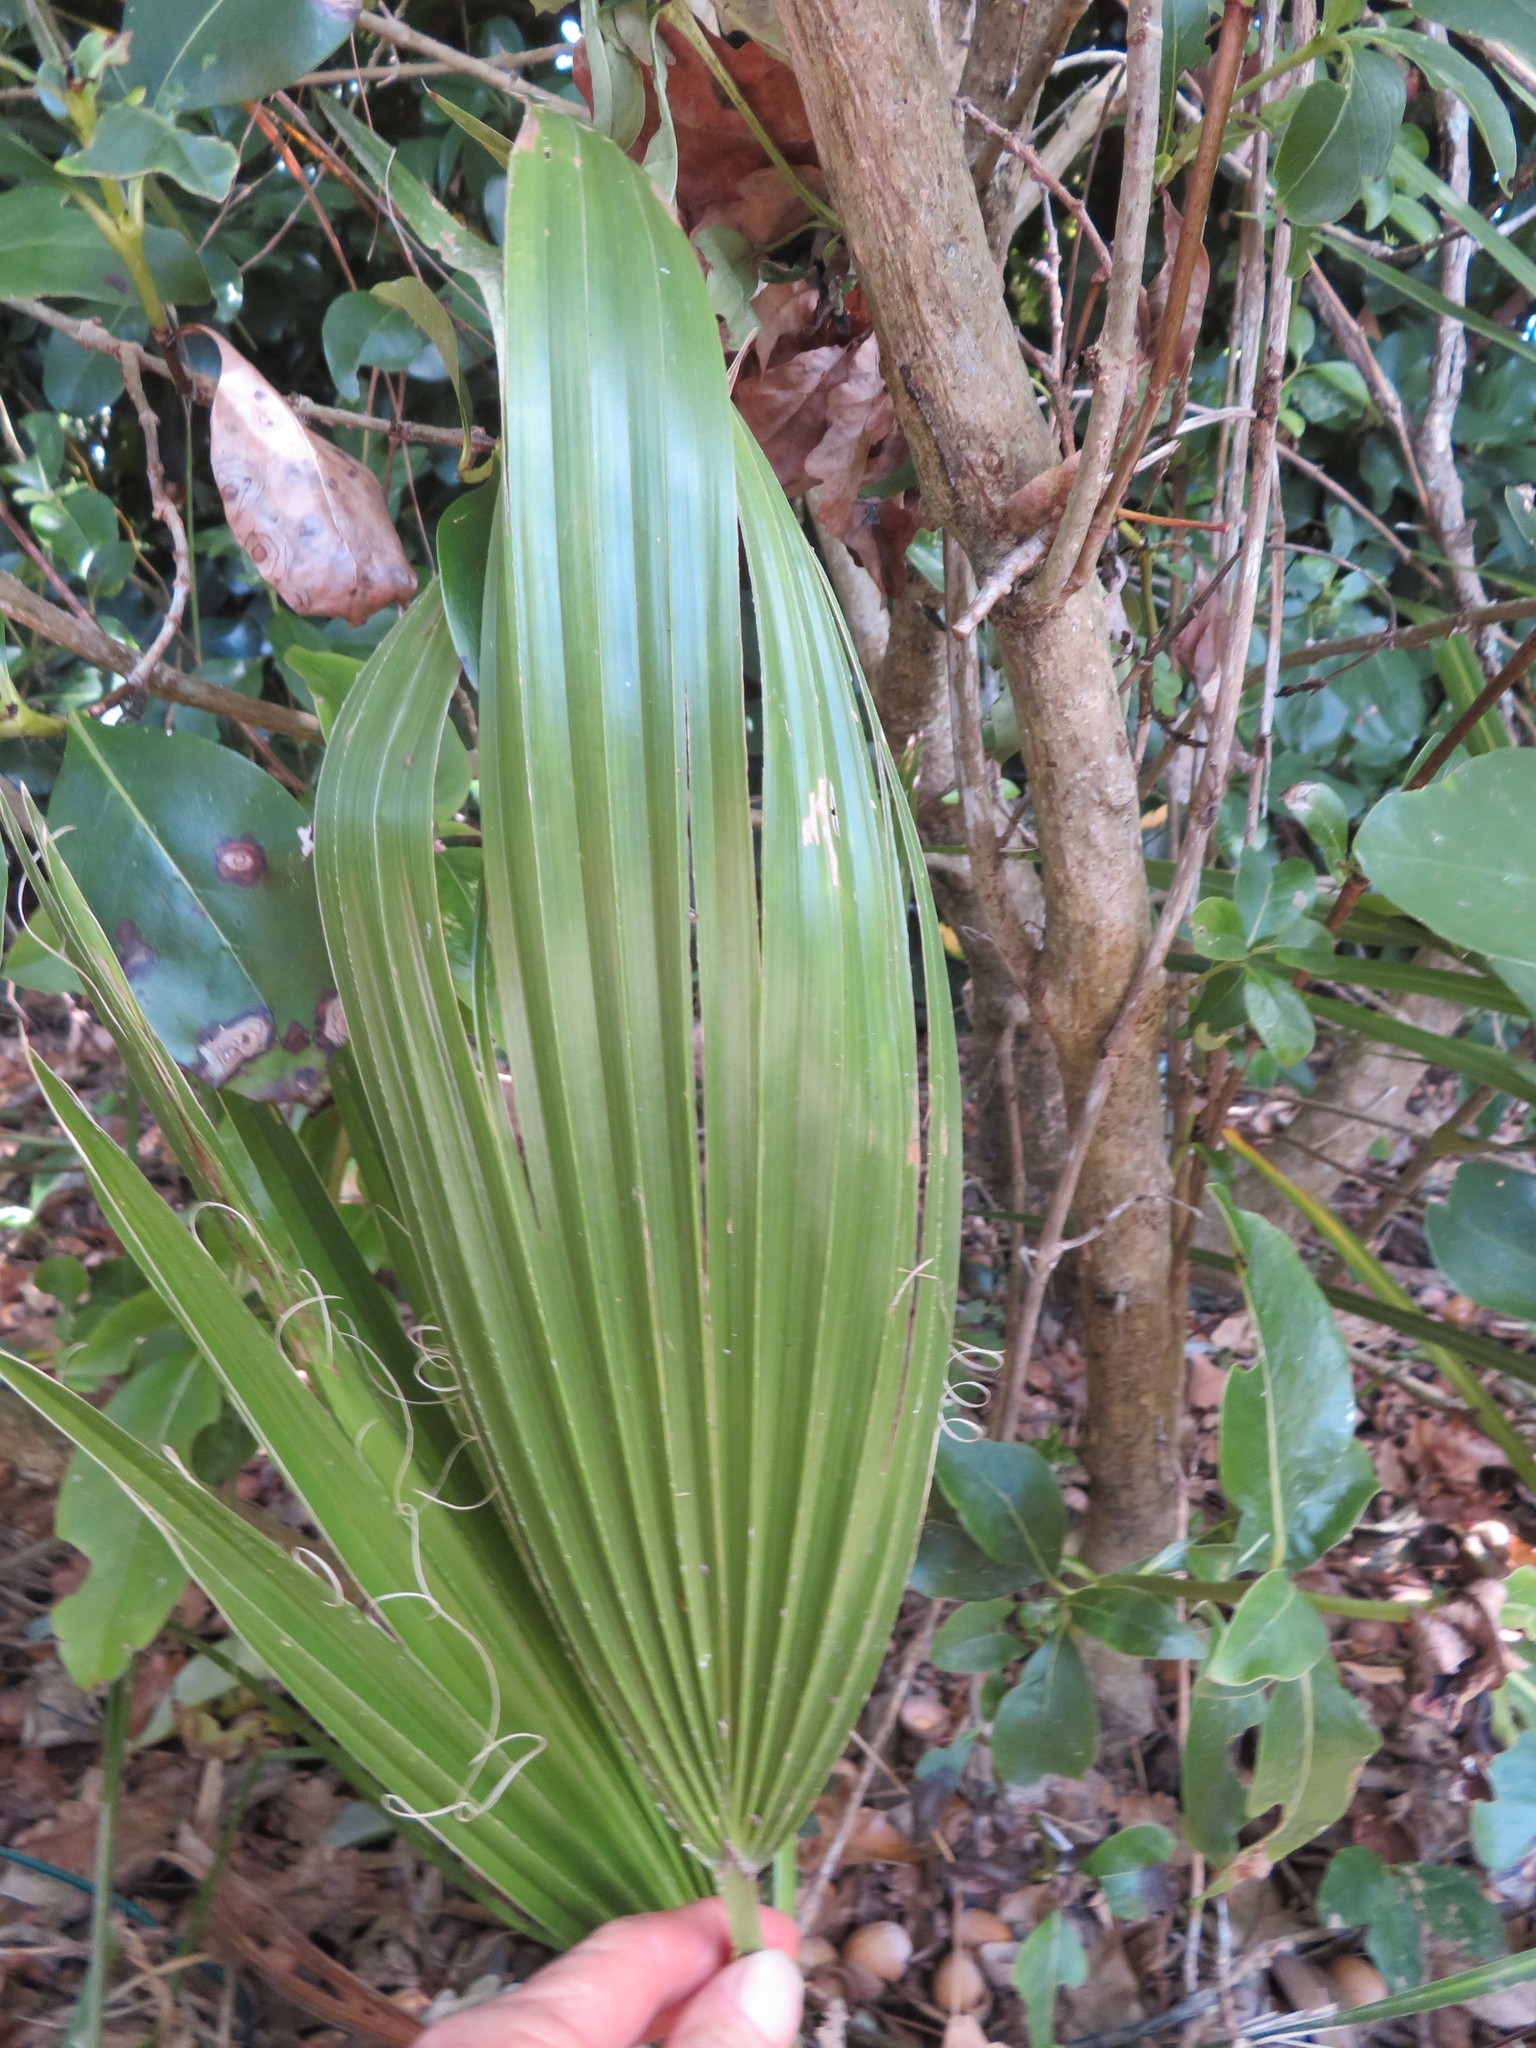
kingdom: Plantae
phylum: Tracheophyta
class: Liliopsida
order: Arecales
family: Arecaceae
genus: Washingtonia
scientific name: Washingtonia robusta
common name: Mexican fan palm
